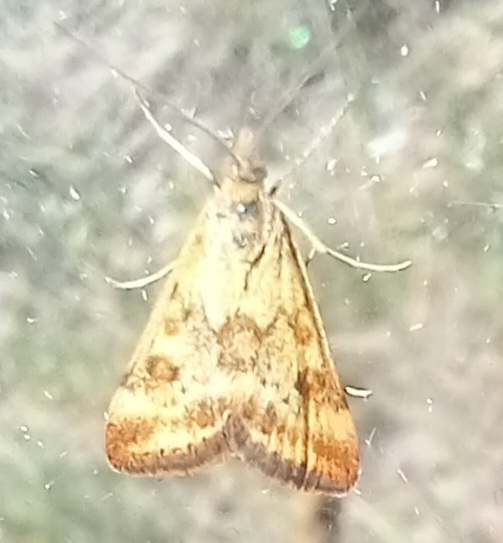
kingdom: Animalia
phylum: Arthropoda
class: Insecta
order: Lepidoptera
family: Crambidae
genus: Pyrausta
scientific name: Pyrausta despicata
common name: Straw-barred pearl
